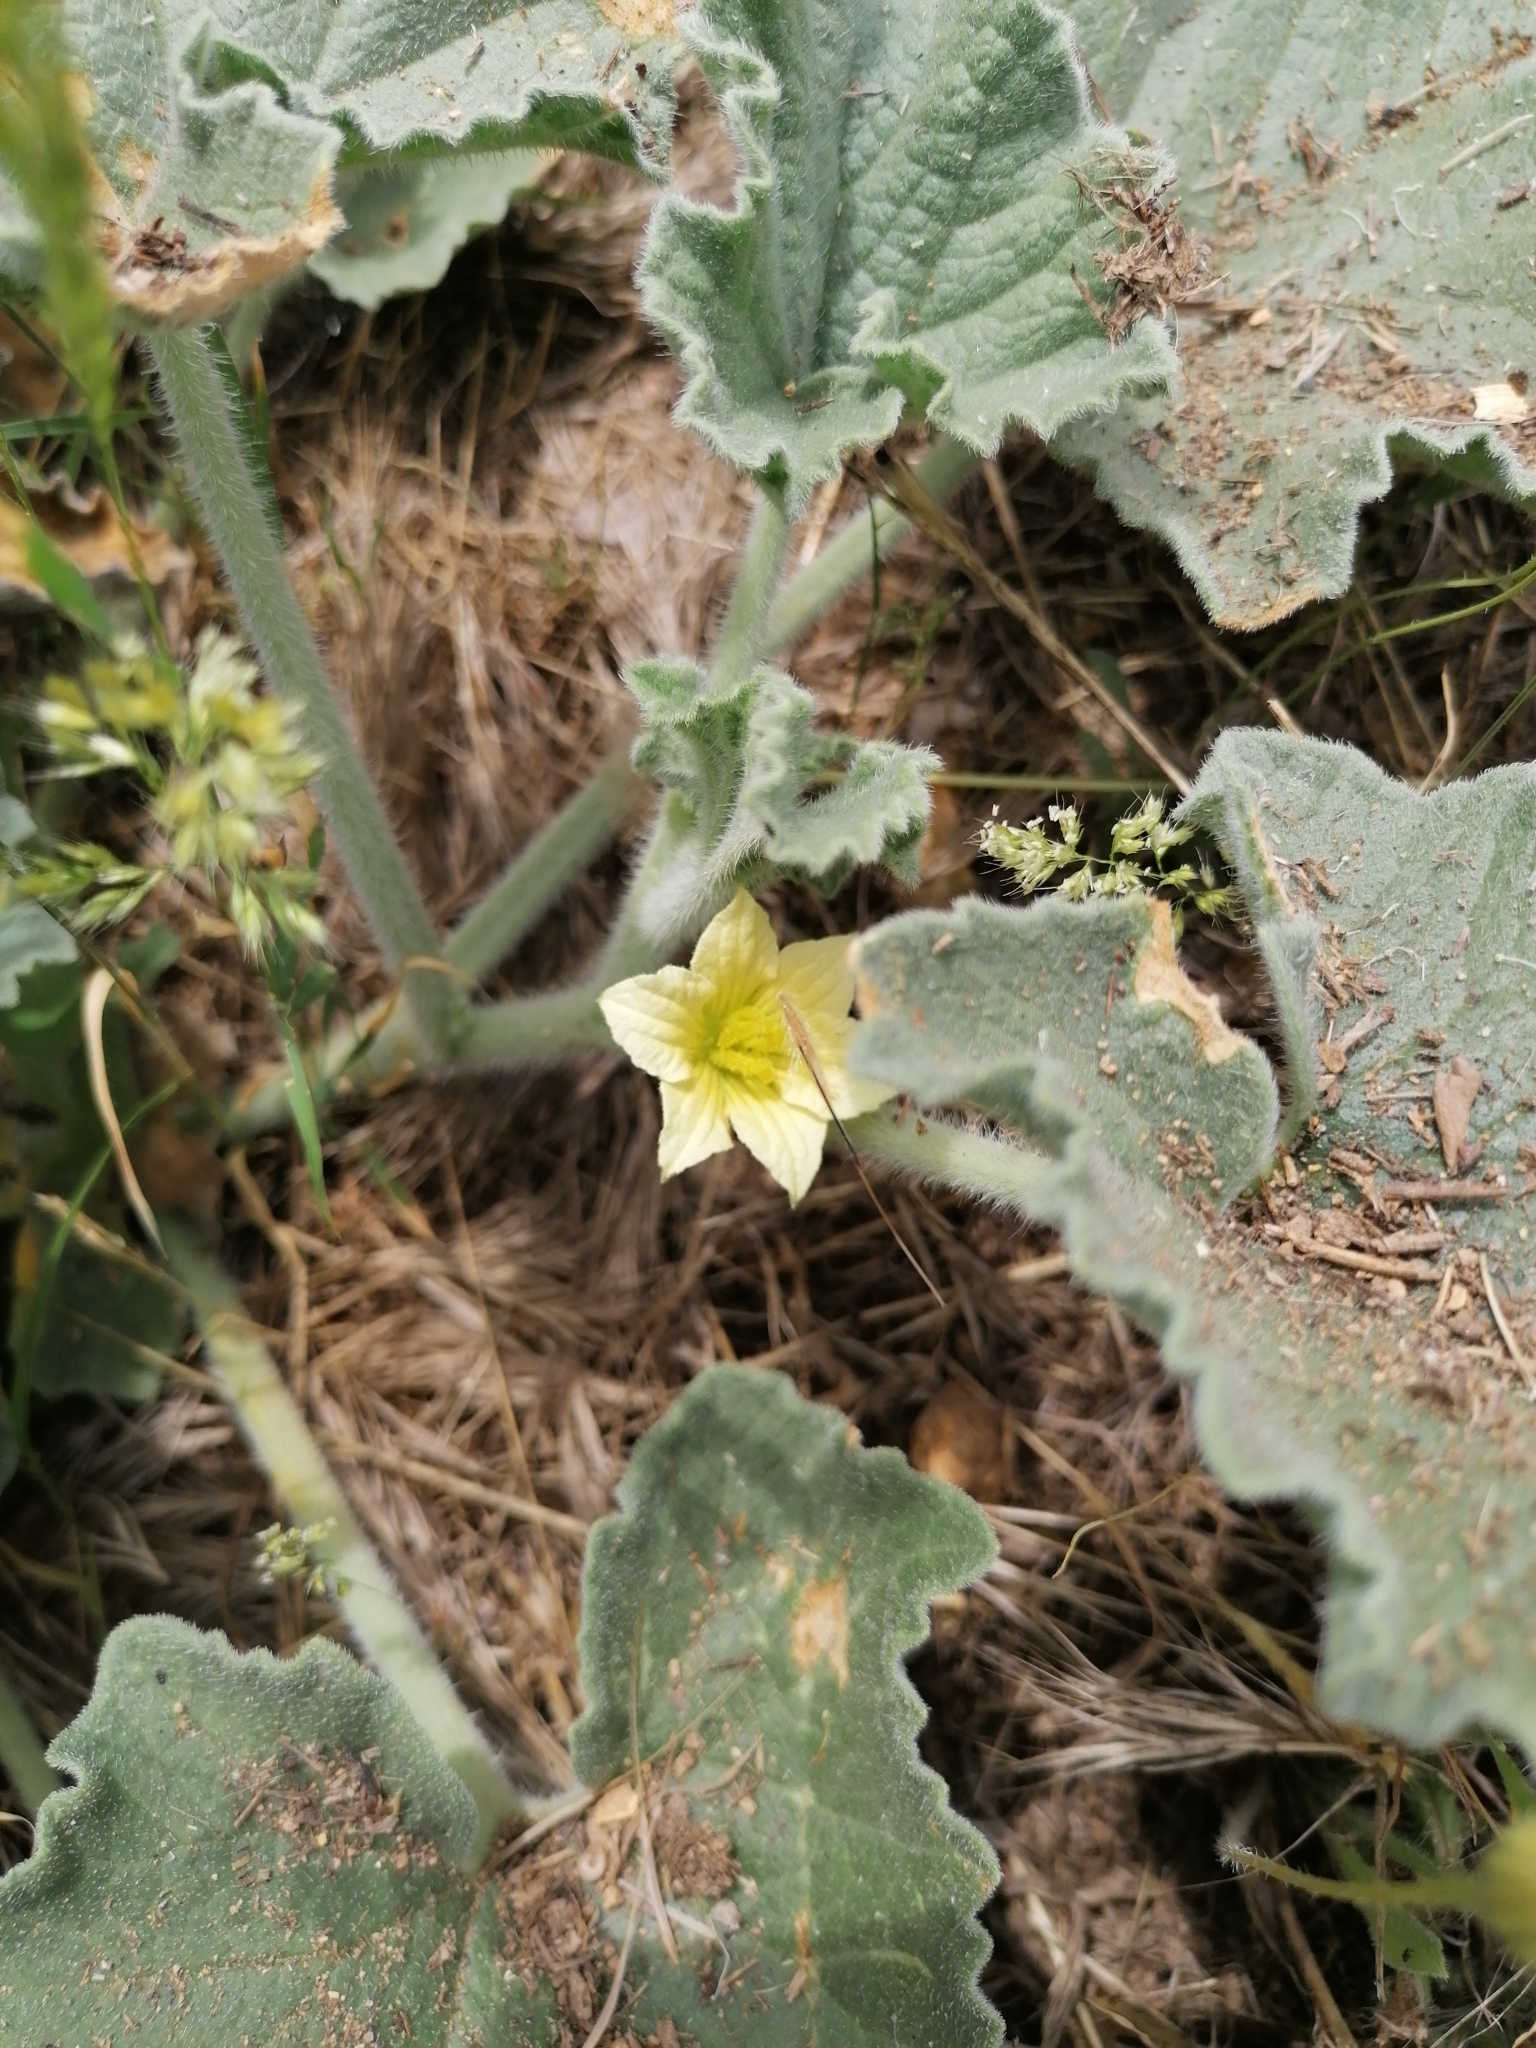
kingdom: Plantae
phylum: Tracheophyta
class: Magnoliopsida
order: Cucurbitales
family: Cucurbitaceae
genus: Ecballium
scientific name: Ecballium elaterium
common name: Squirting cucumber
